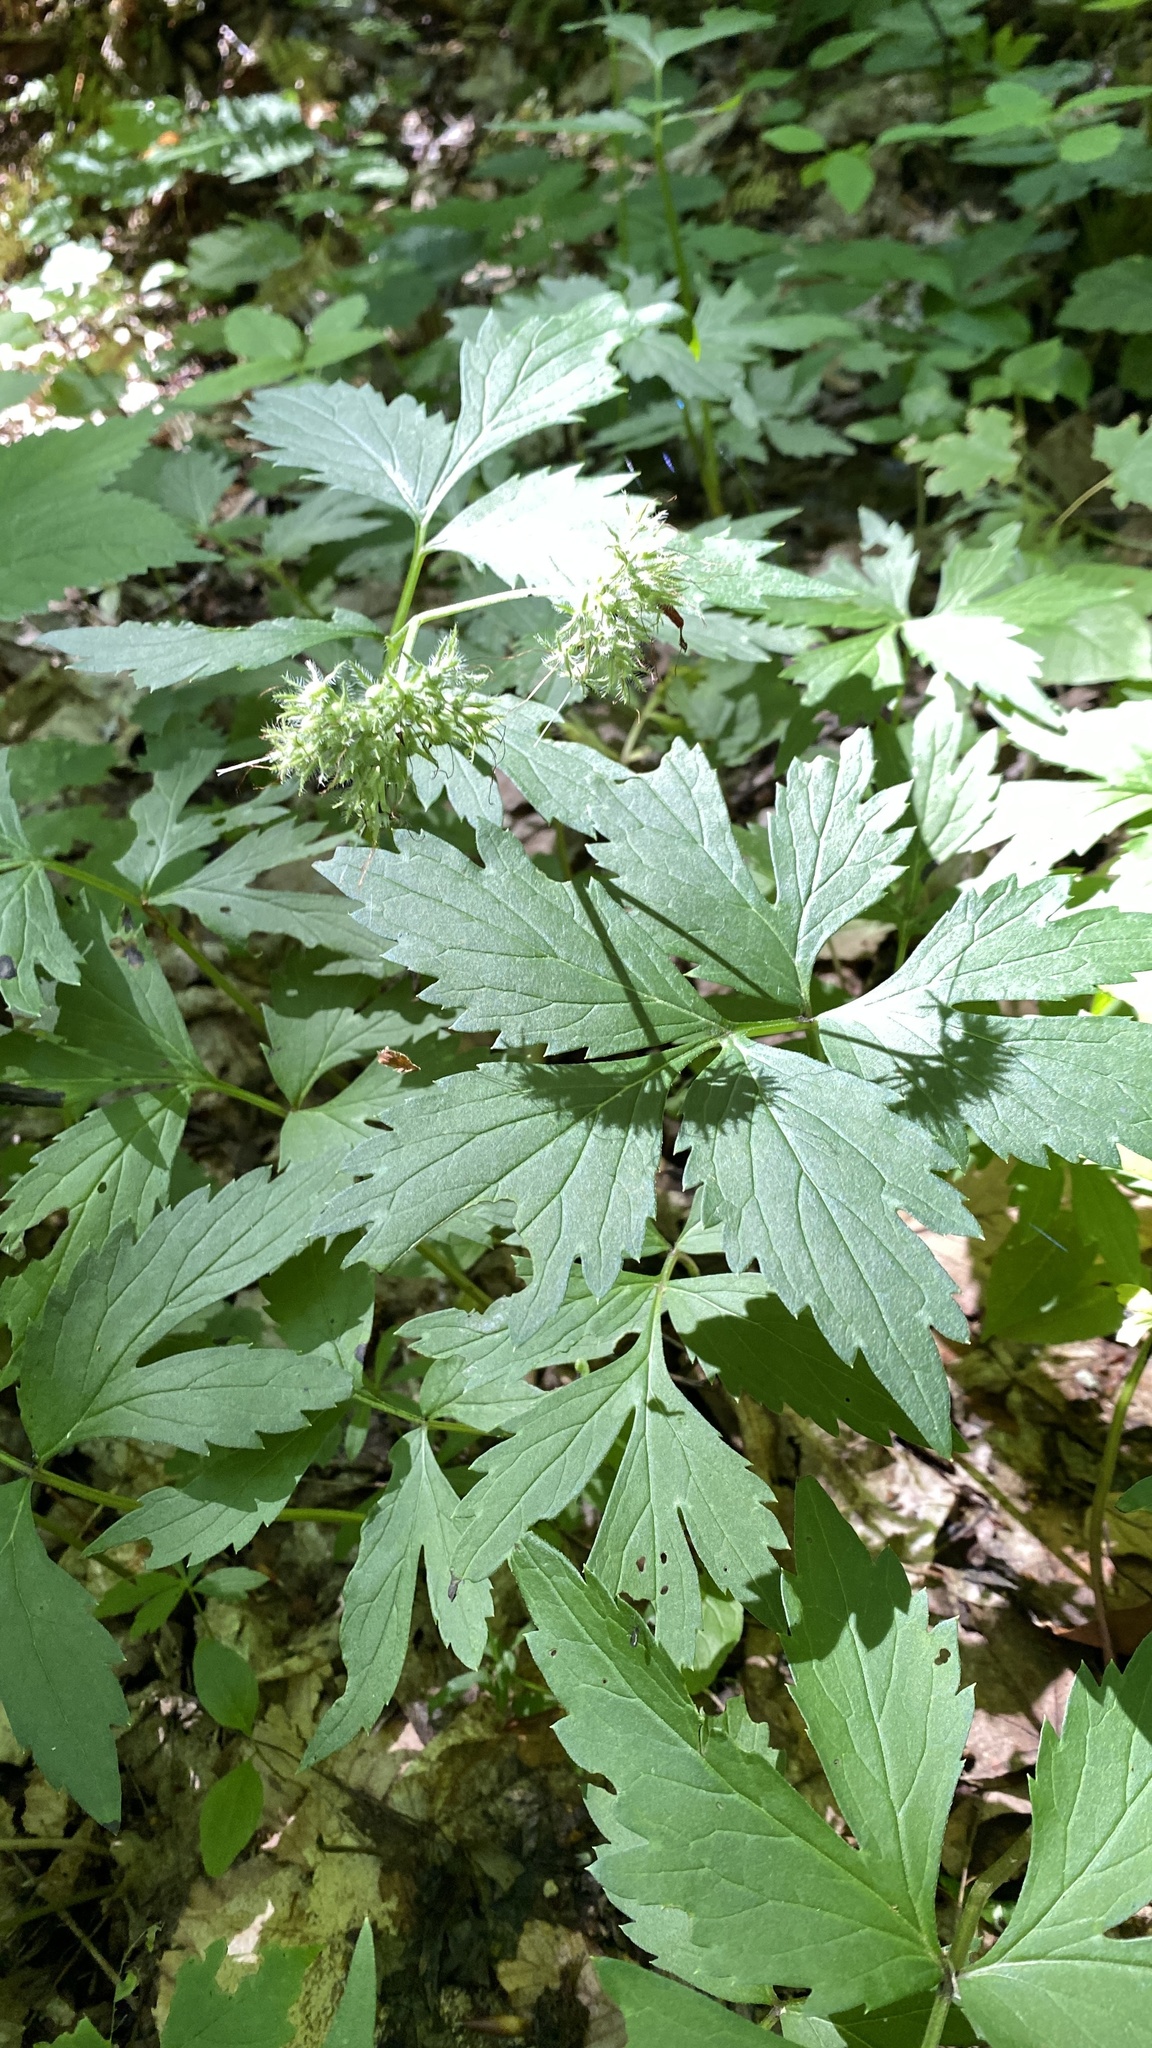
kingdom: Plantae
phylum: Tracheophyta
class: Magnoliopsida
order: Boraginales
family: Hydrophyllaceae
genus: Hydrophyllum
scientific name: Hydrophyllum virginianum
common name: Virginia waterleaf
